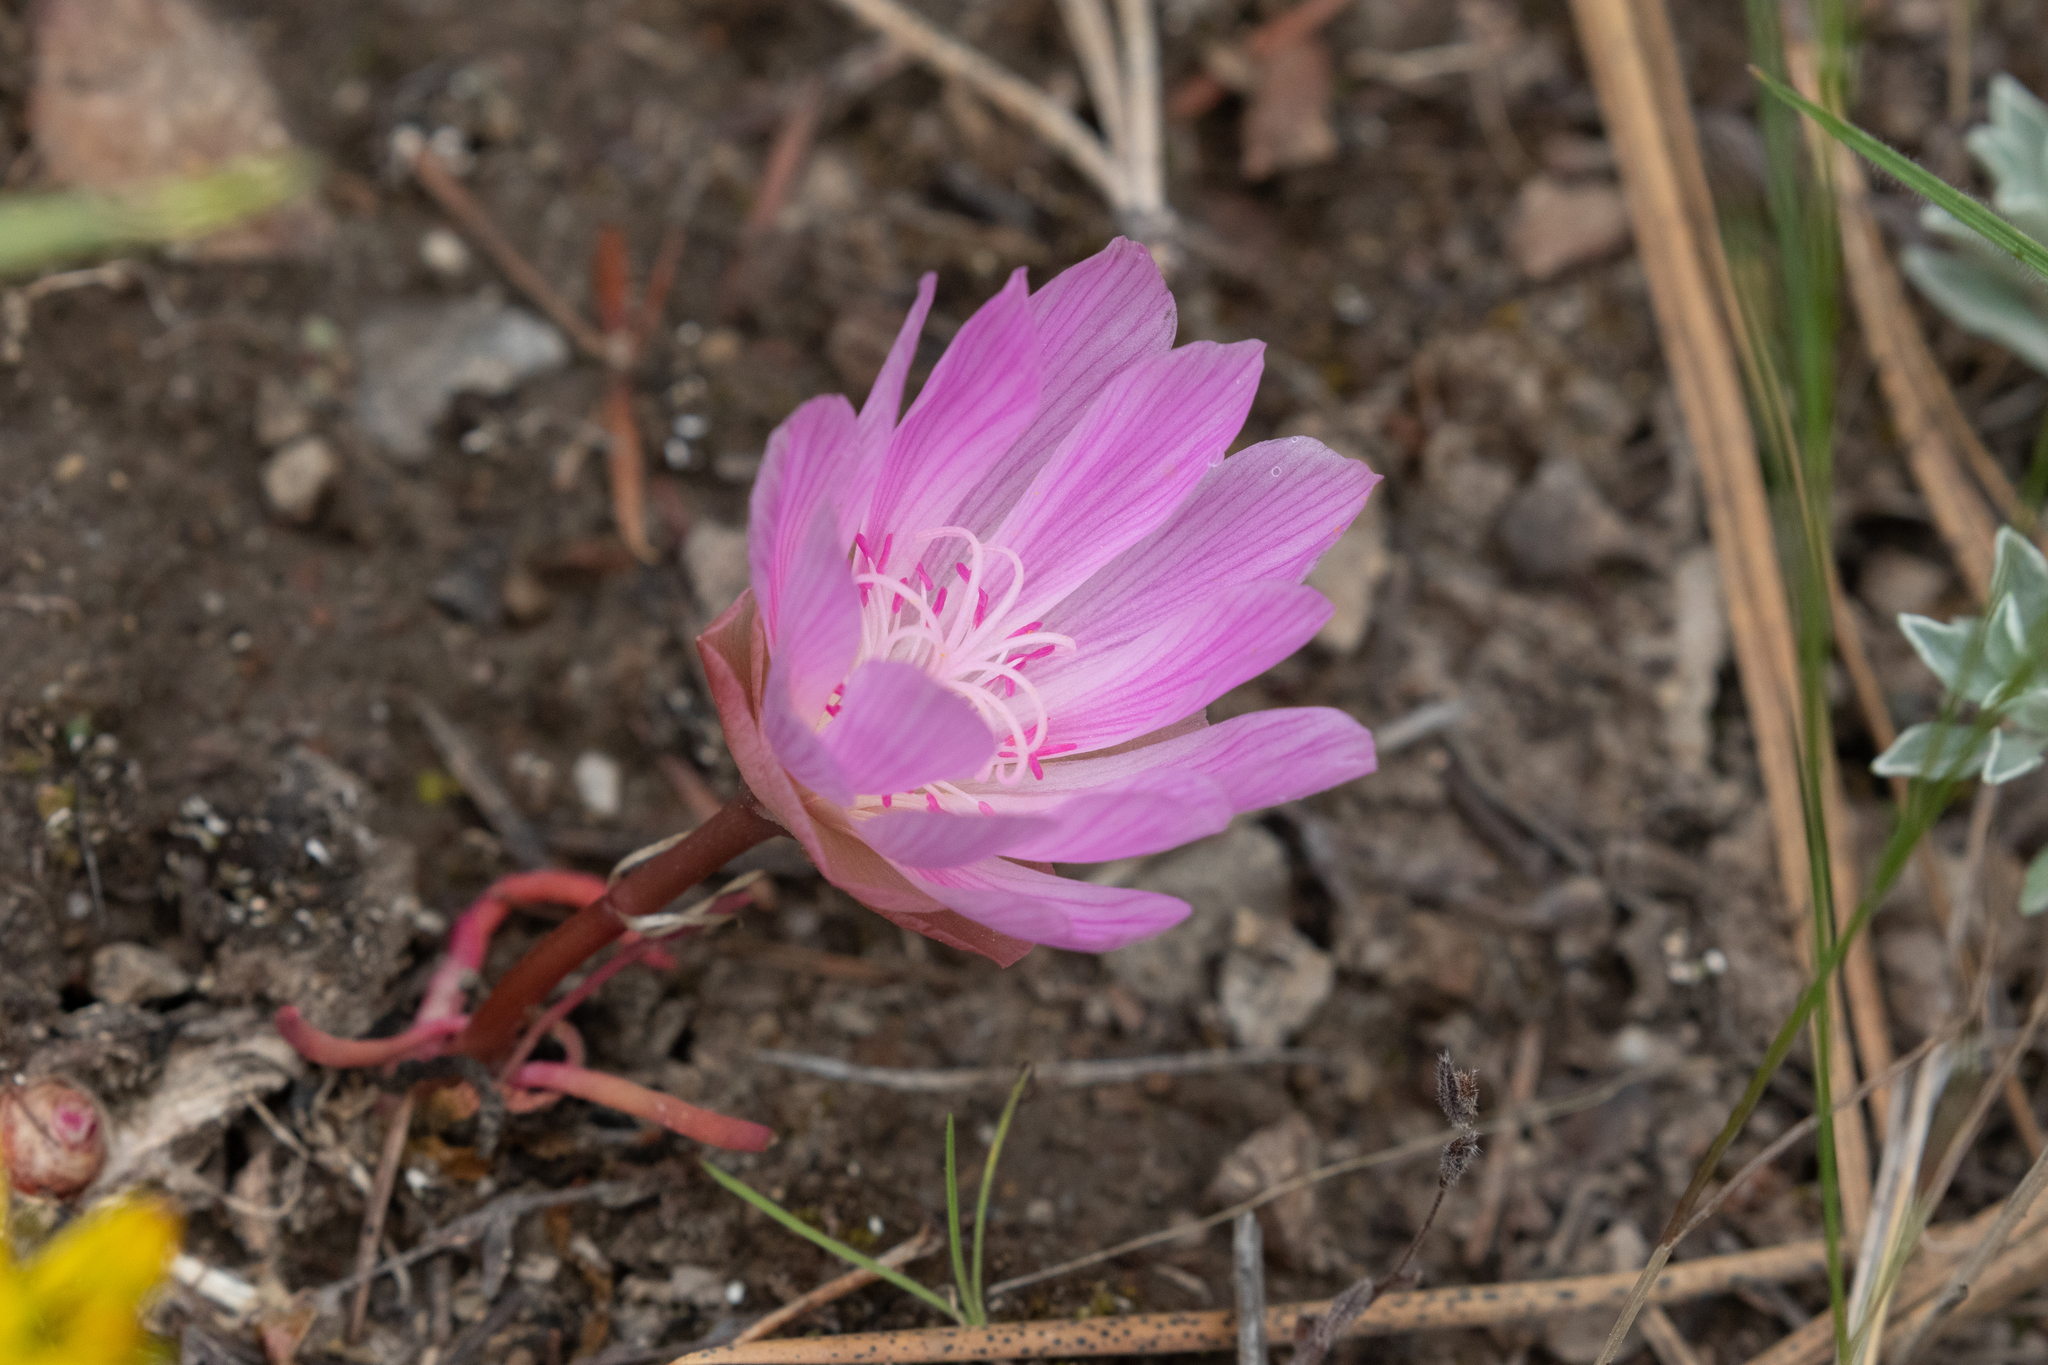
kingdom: Plantae
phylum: Tracheophyta
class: Magnoliopsida
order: Caryophyllales
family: Montiaceae
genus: Lewisia
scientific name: Lewisia rediviva
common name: Bitter-root
